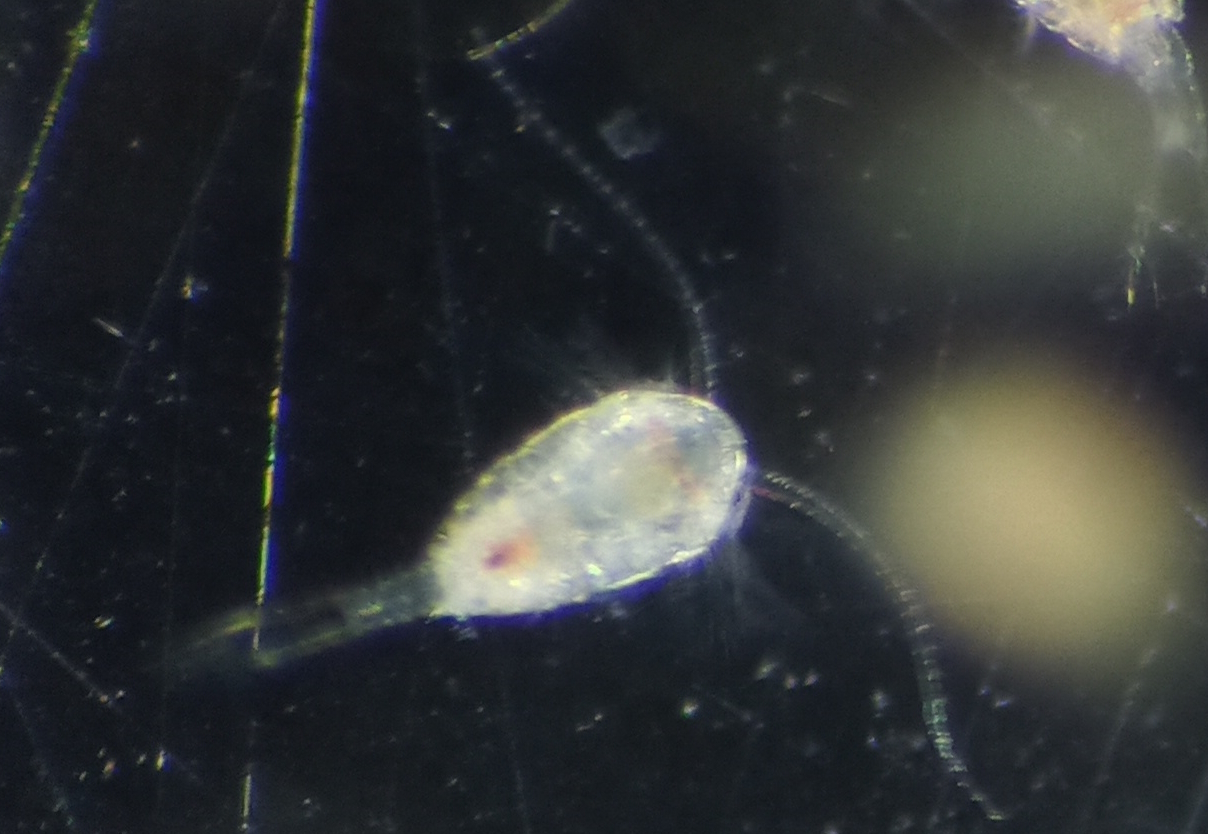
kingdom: Animalia
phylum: Arthropoda
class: Copepoda
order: Calanoida
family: Temoridae
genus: Temora
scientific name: Temora turbinata
